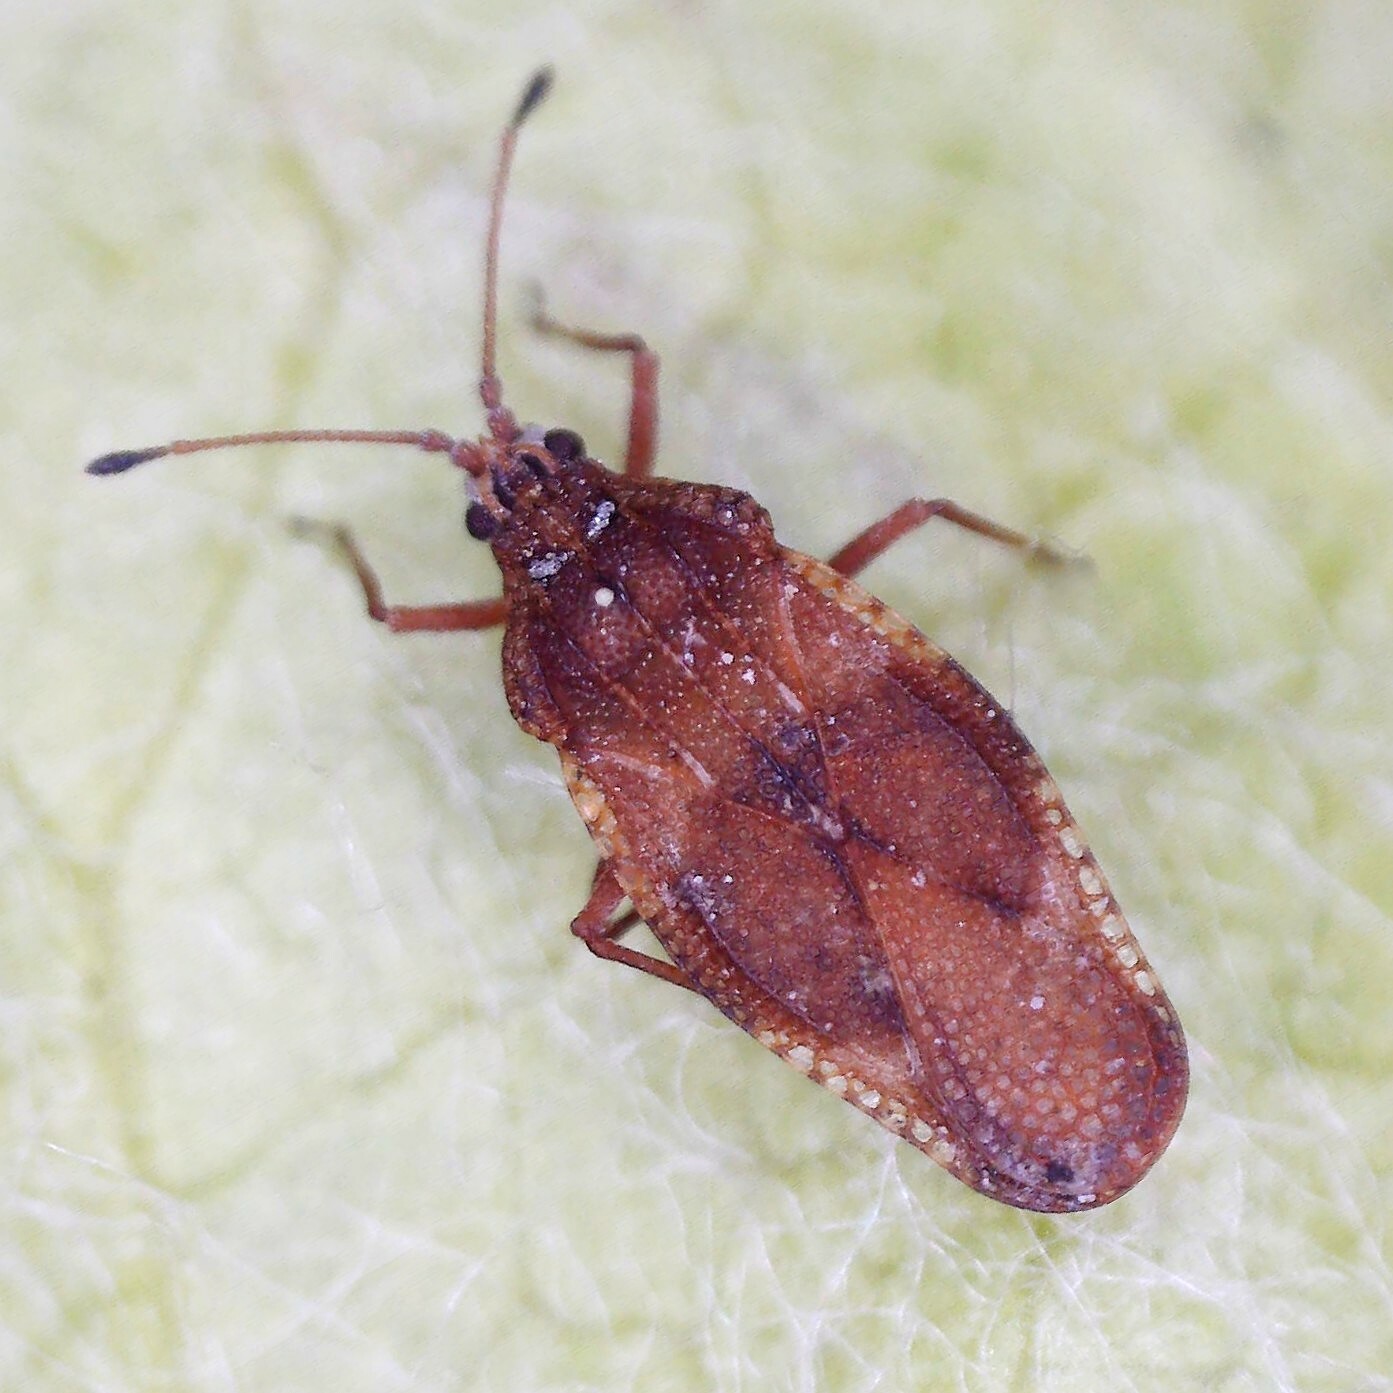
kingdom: Animalia
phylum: Arthropoda
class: Insecta
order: Hemiptera
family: Tingidae
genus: Physatocheila
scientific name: Physatocheila dumetorum
